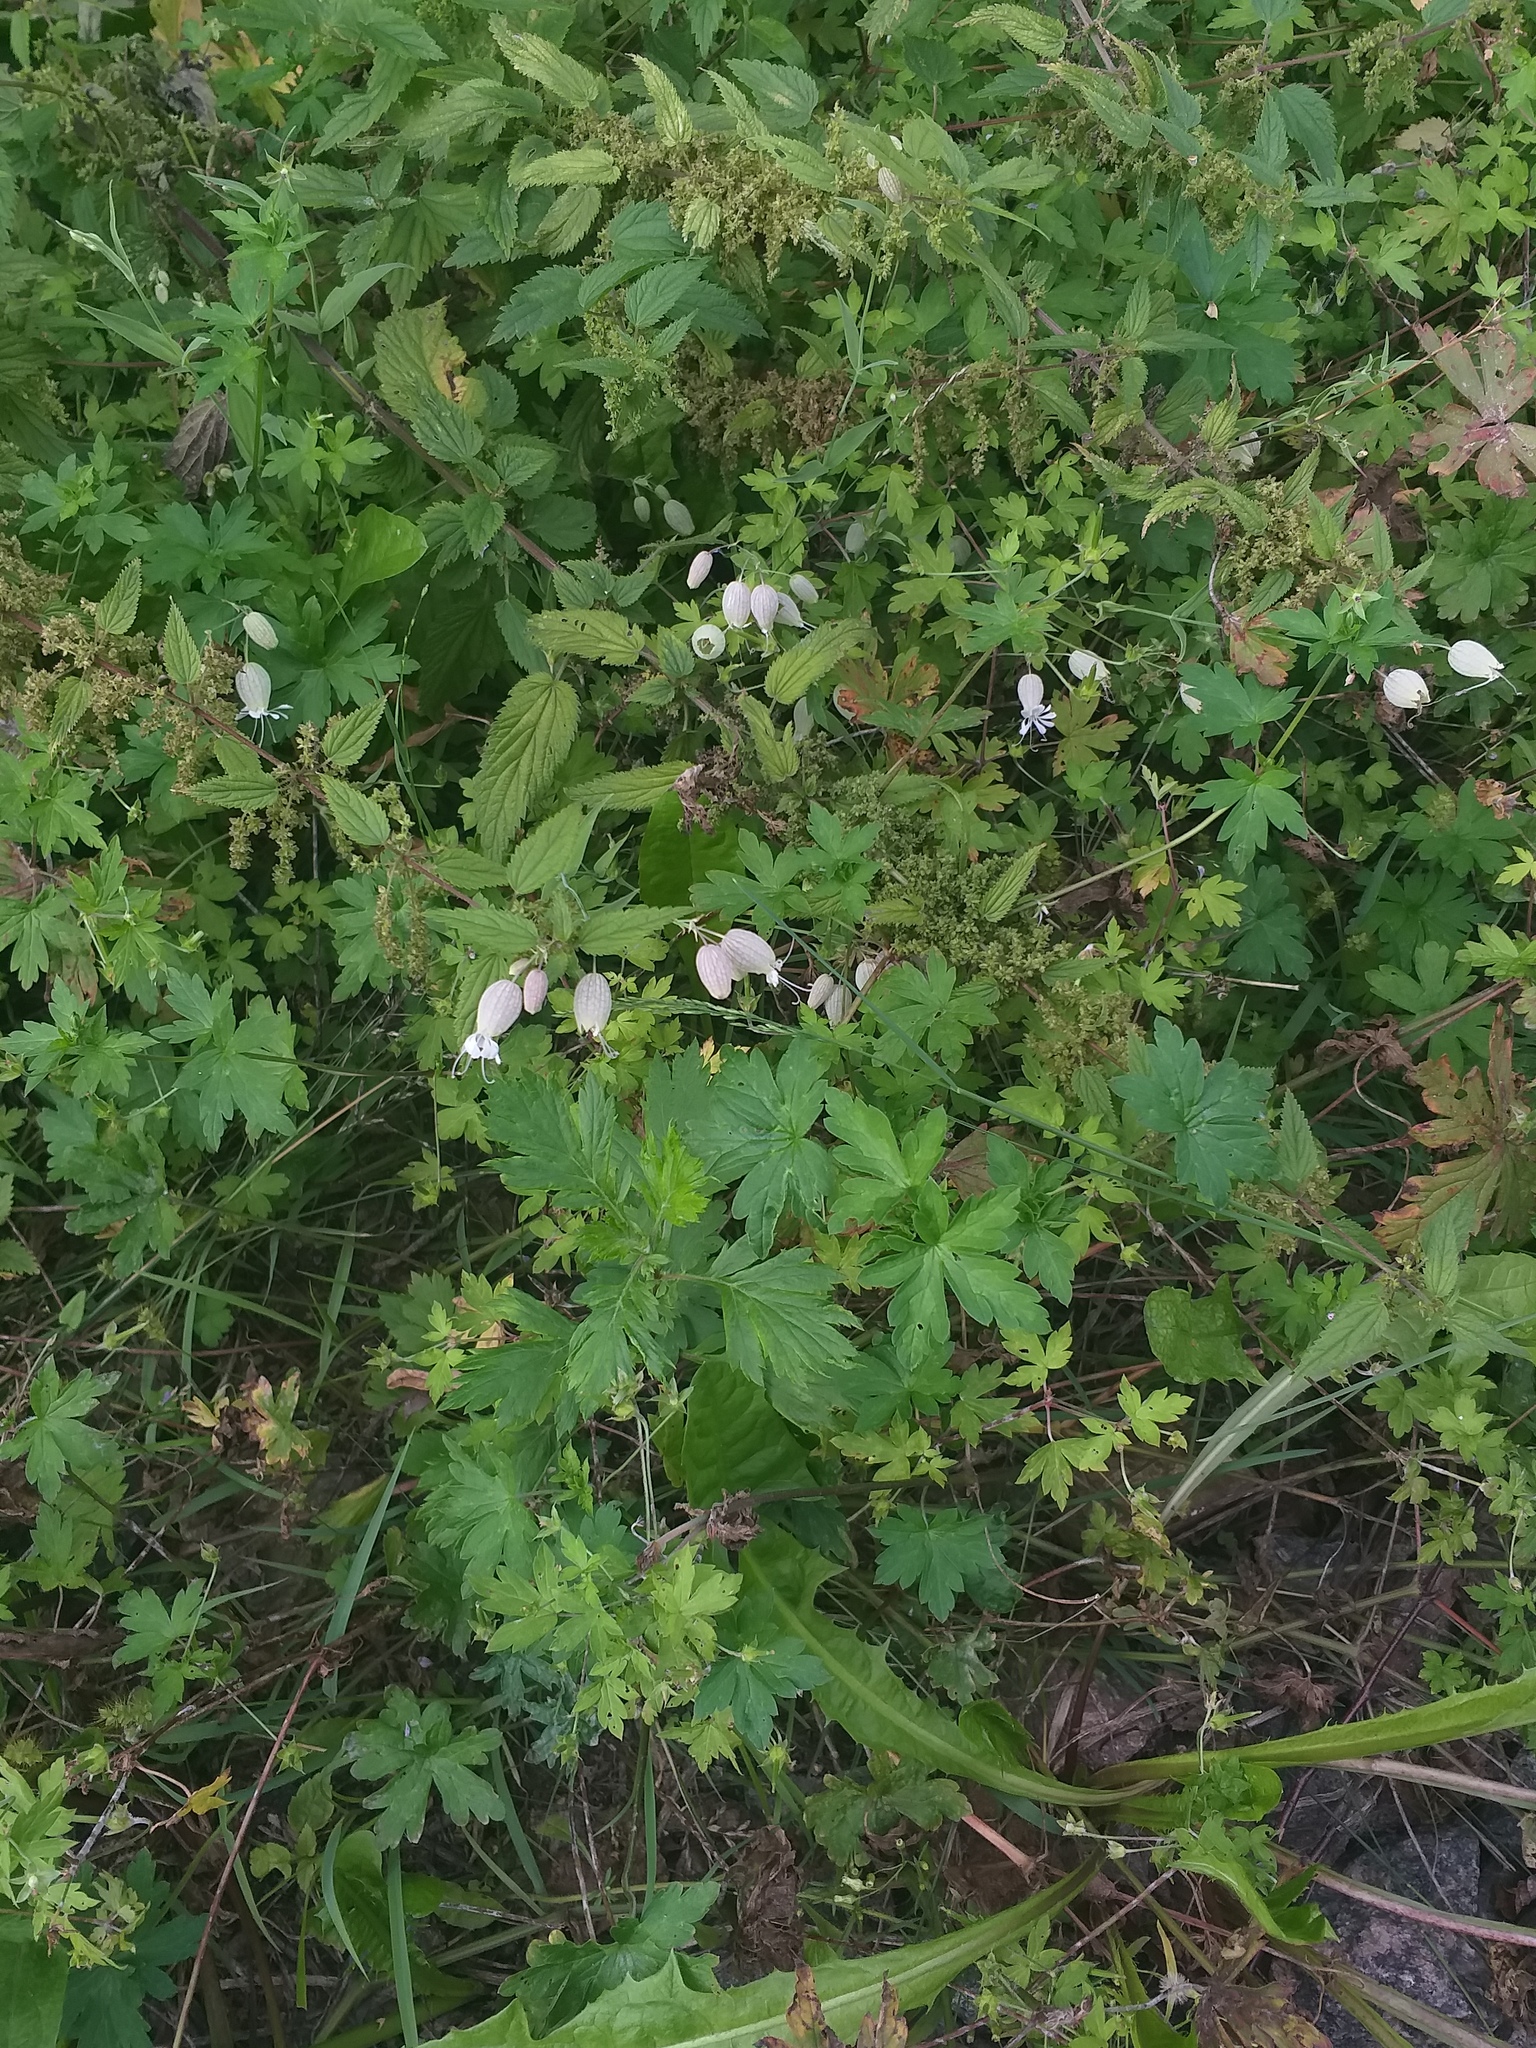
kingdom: Plantae
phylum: Tracheophyta
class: Magnoliopsida
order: Caryophyllales
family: Caryophyllaceae
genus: Silene
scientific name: Silene vulgaris
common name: Bladder campion
